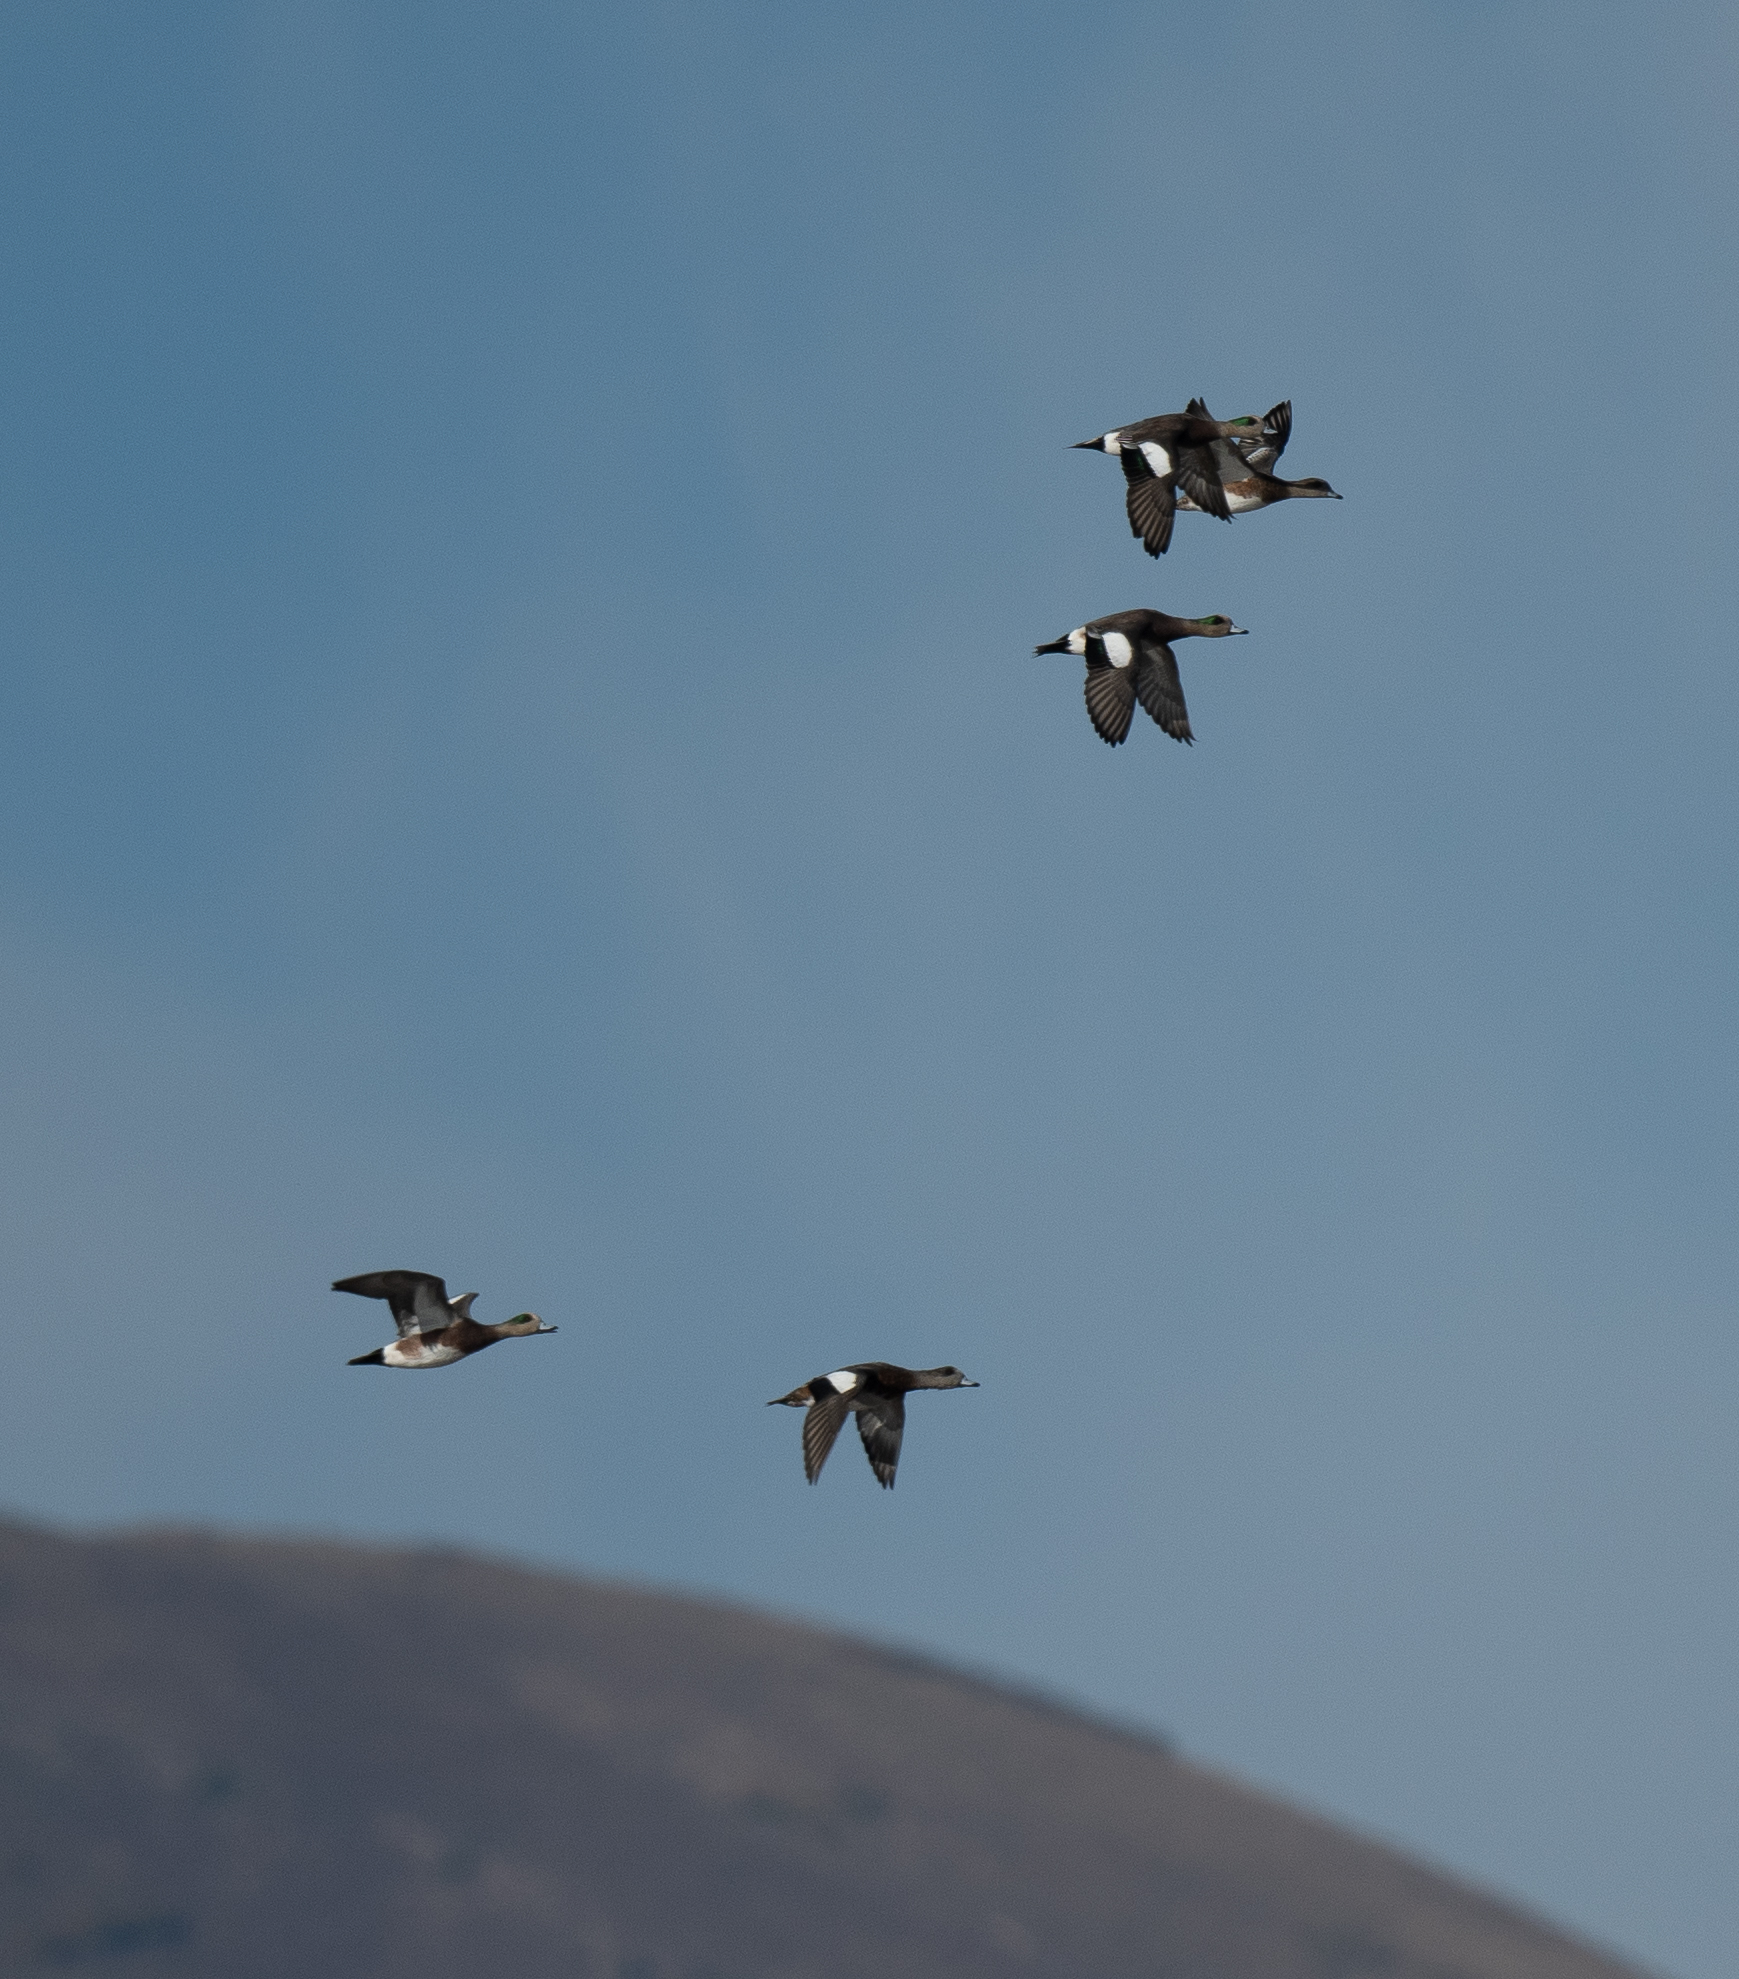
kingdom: Animalia
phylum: Chordata
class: Aves
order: Anseriformes
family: Anatidae
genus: Mareca
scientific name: Mareca americana
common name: American wigeon
